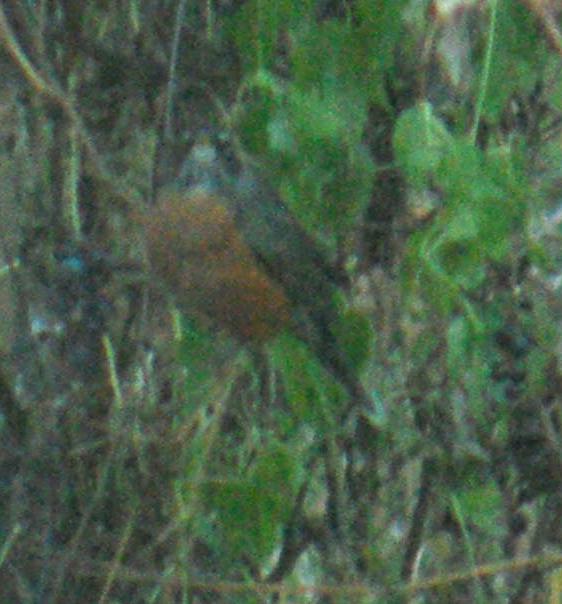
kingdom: Animalia
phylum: Chordata
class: Aves
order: Passeriformes
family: Turdidae
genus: Turdus
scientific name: Turdus migratorius
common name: American robin
